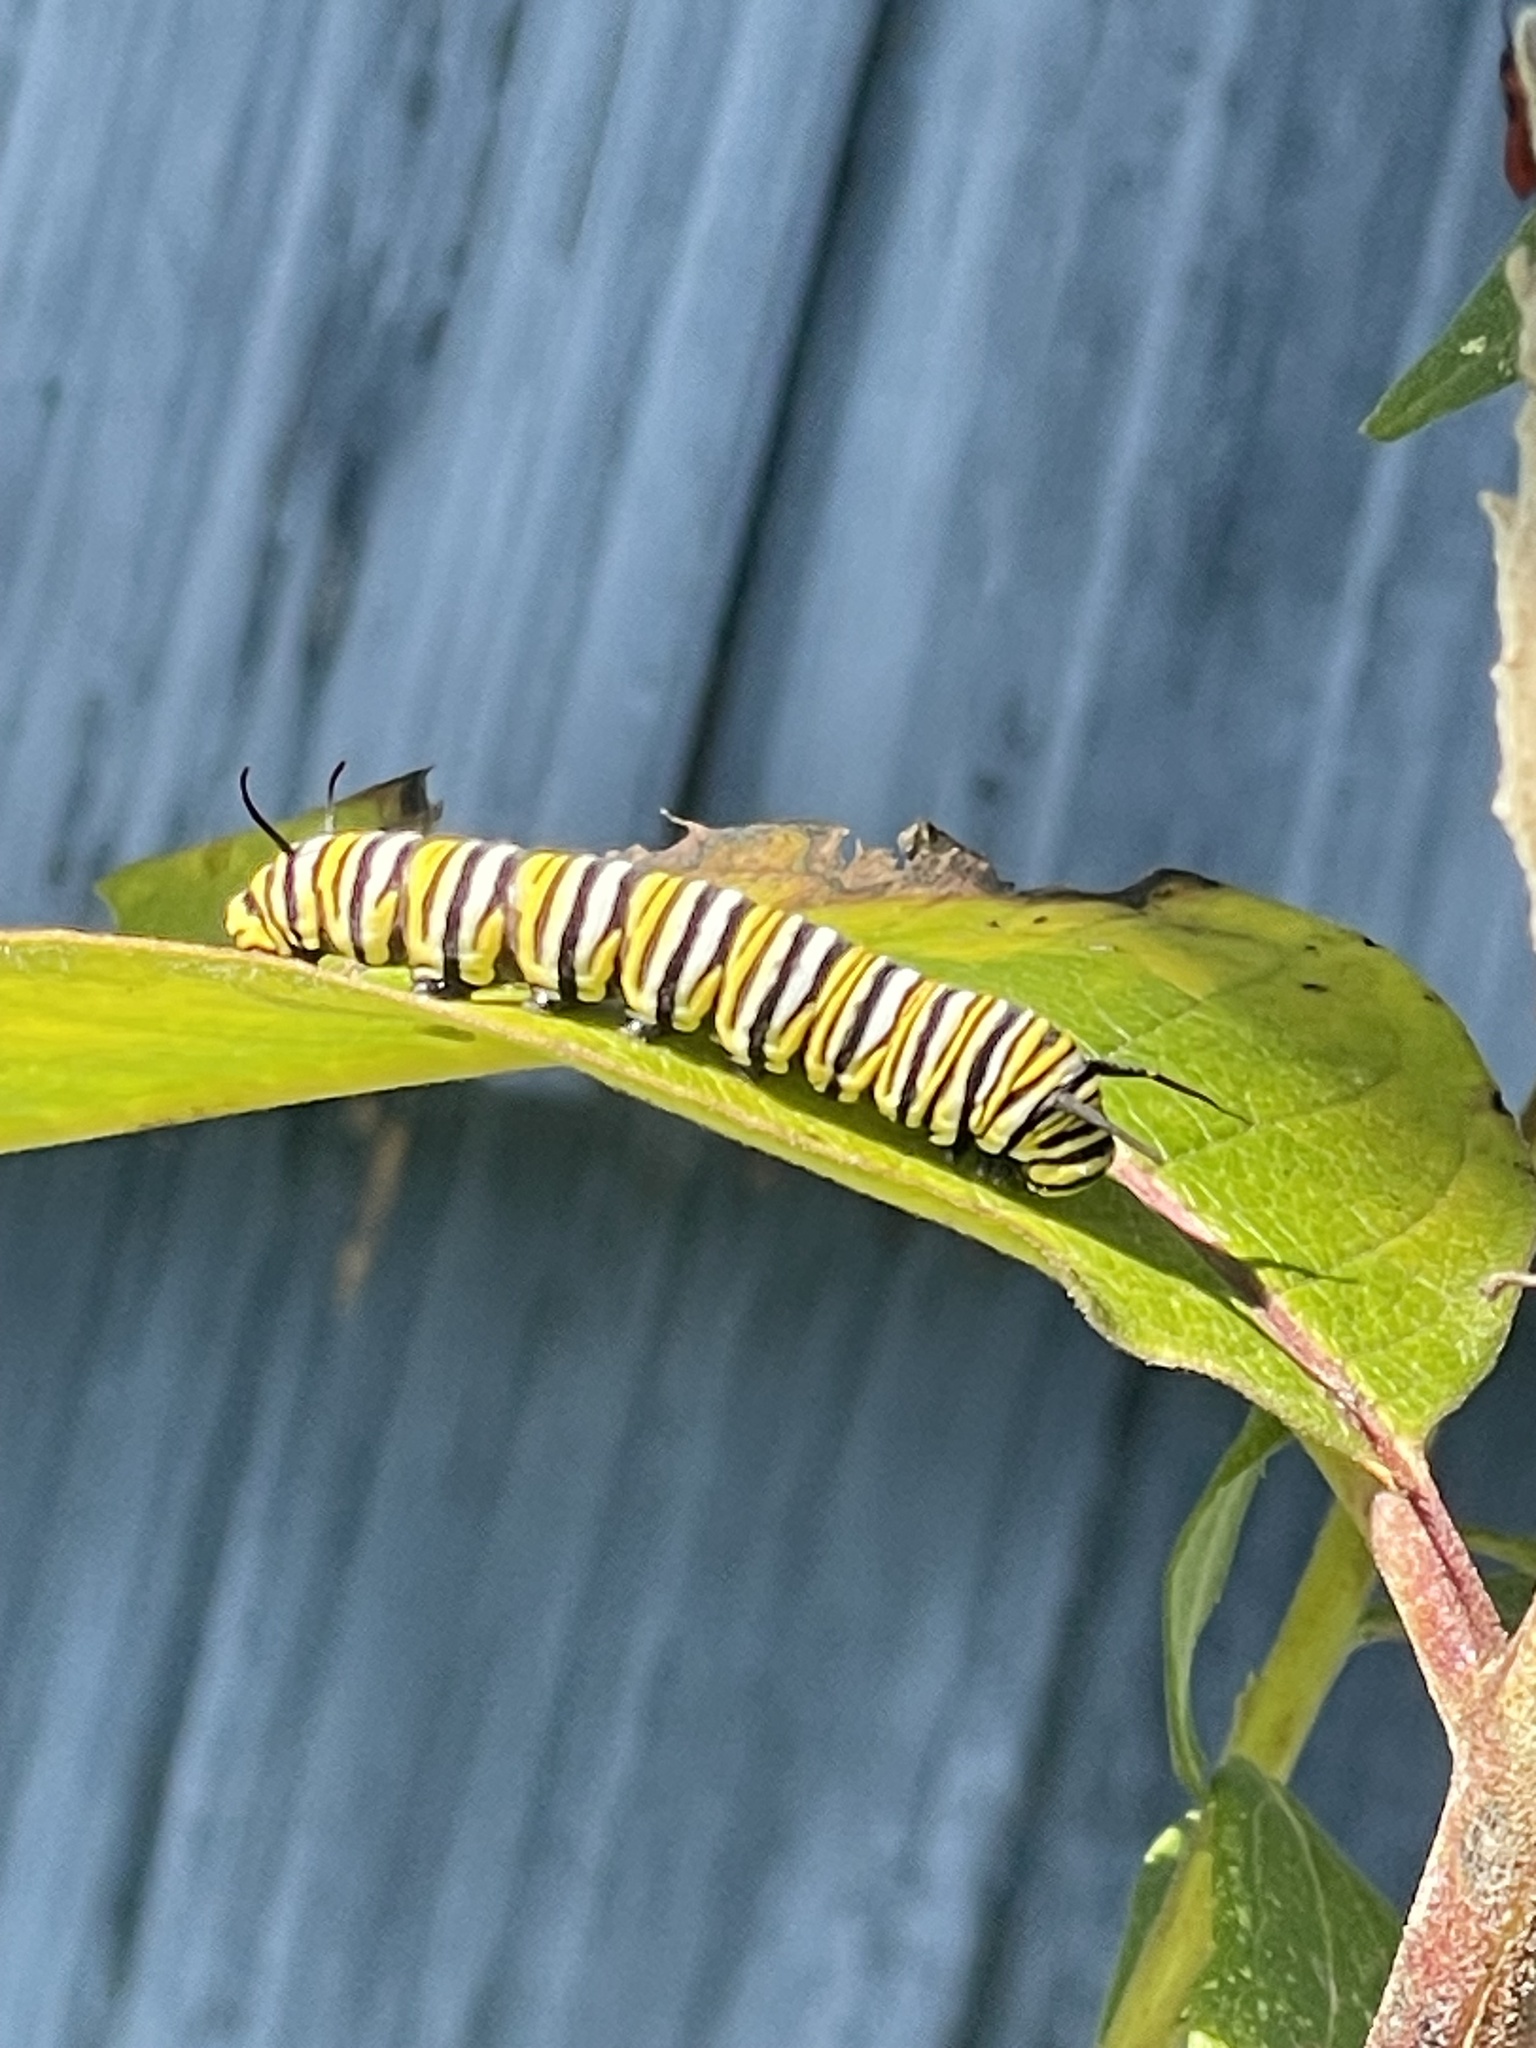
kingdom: Animalia
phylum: Arthropoda
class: Insecta
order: Lepidoptera
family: Nymphalidae
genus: Danaus
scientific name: Danaus plexippus
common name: Monarch
